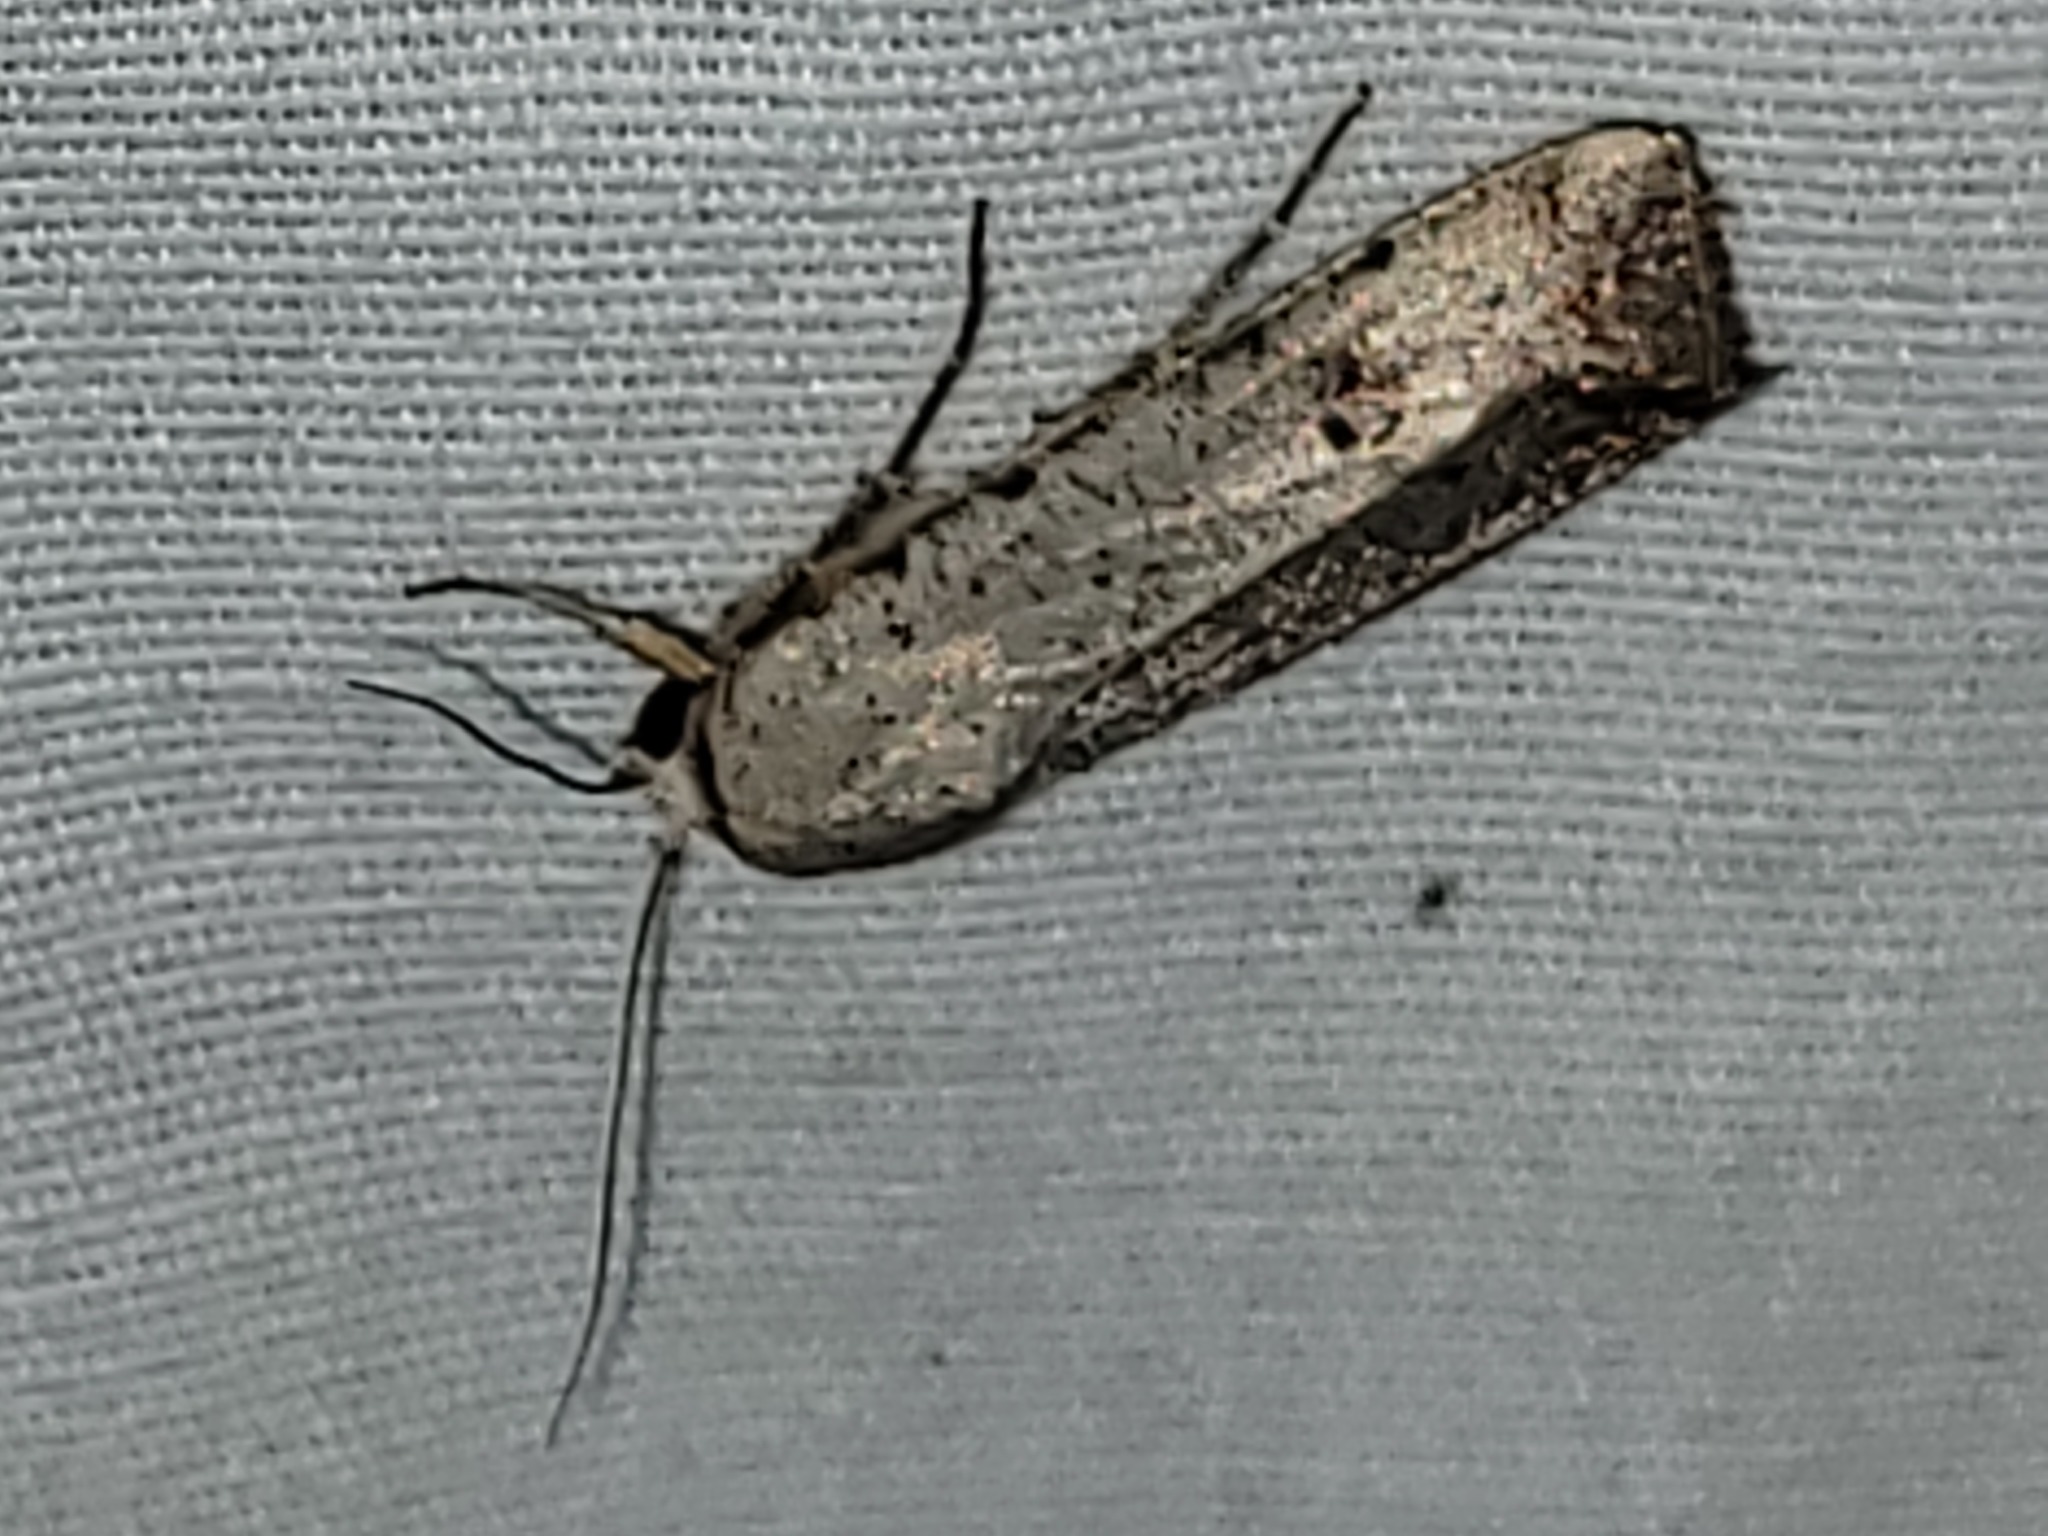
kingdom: Animalia
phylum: Arthropoda
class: Insecta
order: Lepidoptera
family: Noctuidae
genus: Anicla
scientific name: Anicla infecta
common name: Green cutworm
